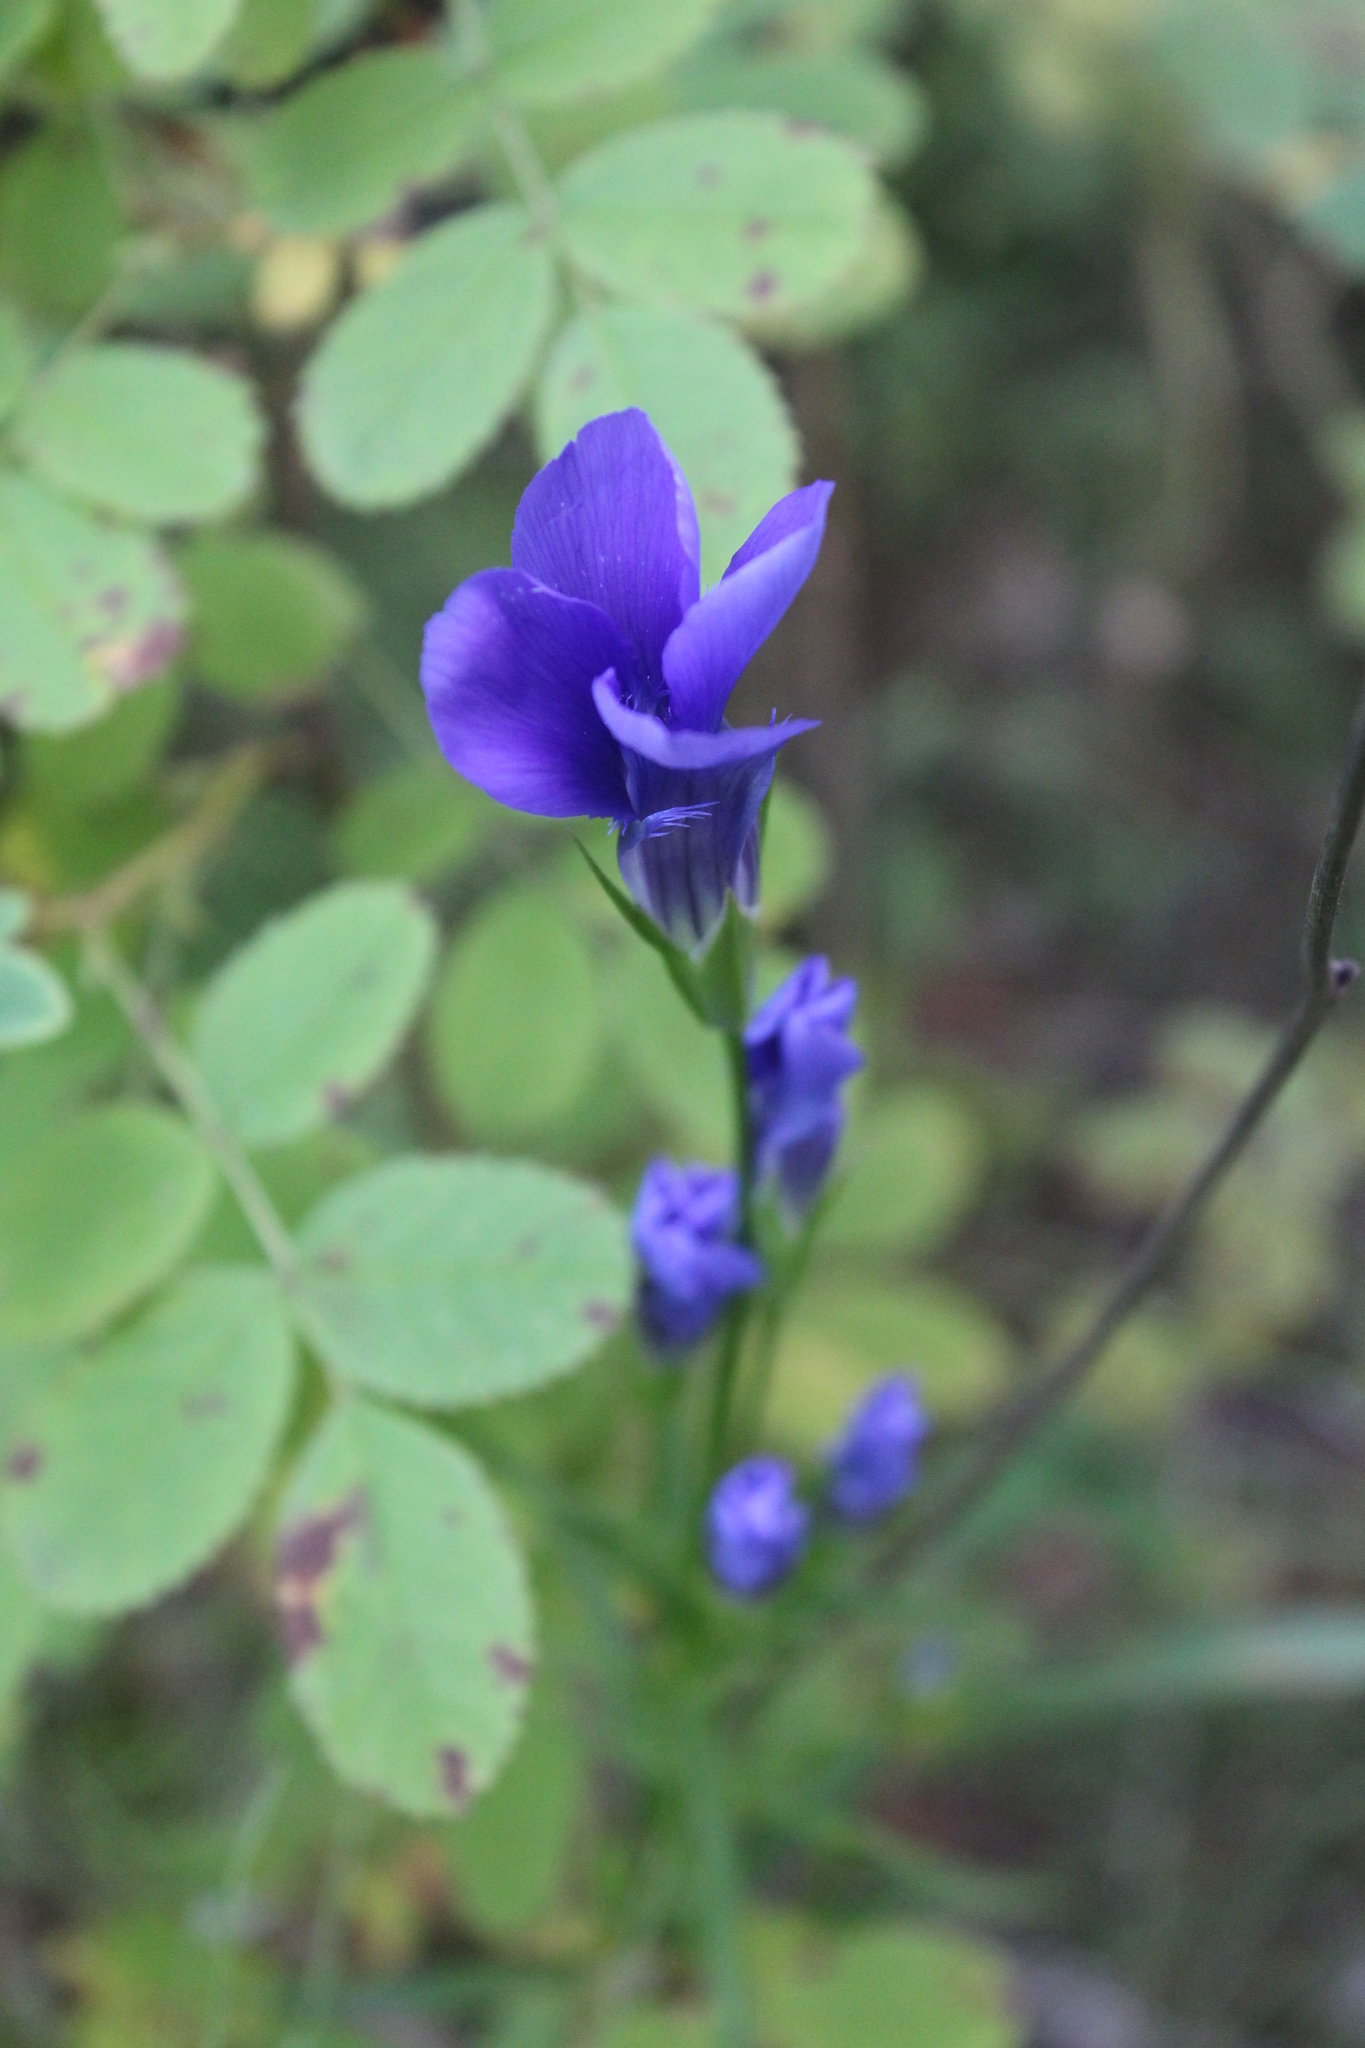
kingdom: Plantae
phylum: Tracheophyta
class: Magnoliopsida
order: Gentianales
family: Gentianaceae
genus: Gentianopsis
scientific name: Gentianopsis barbata
